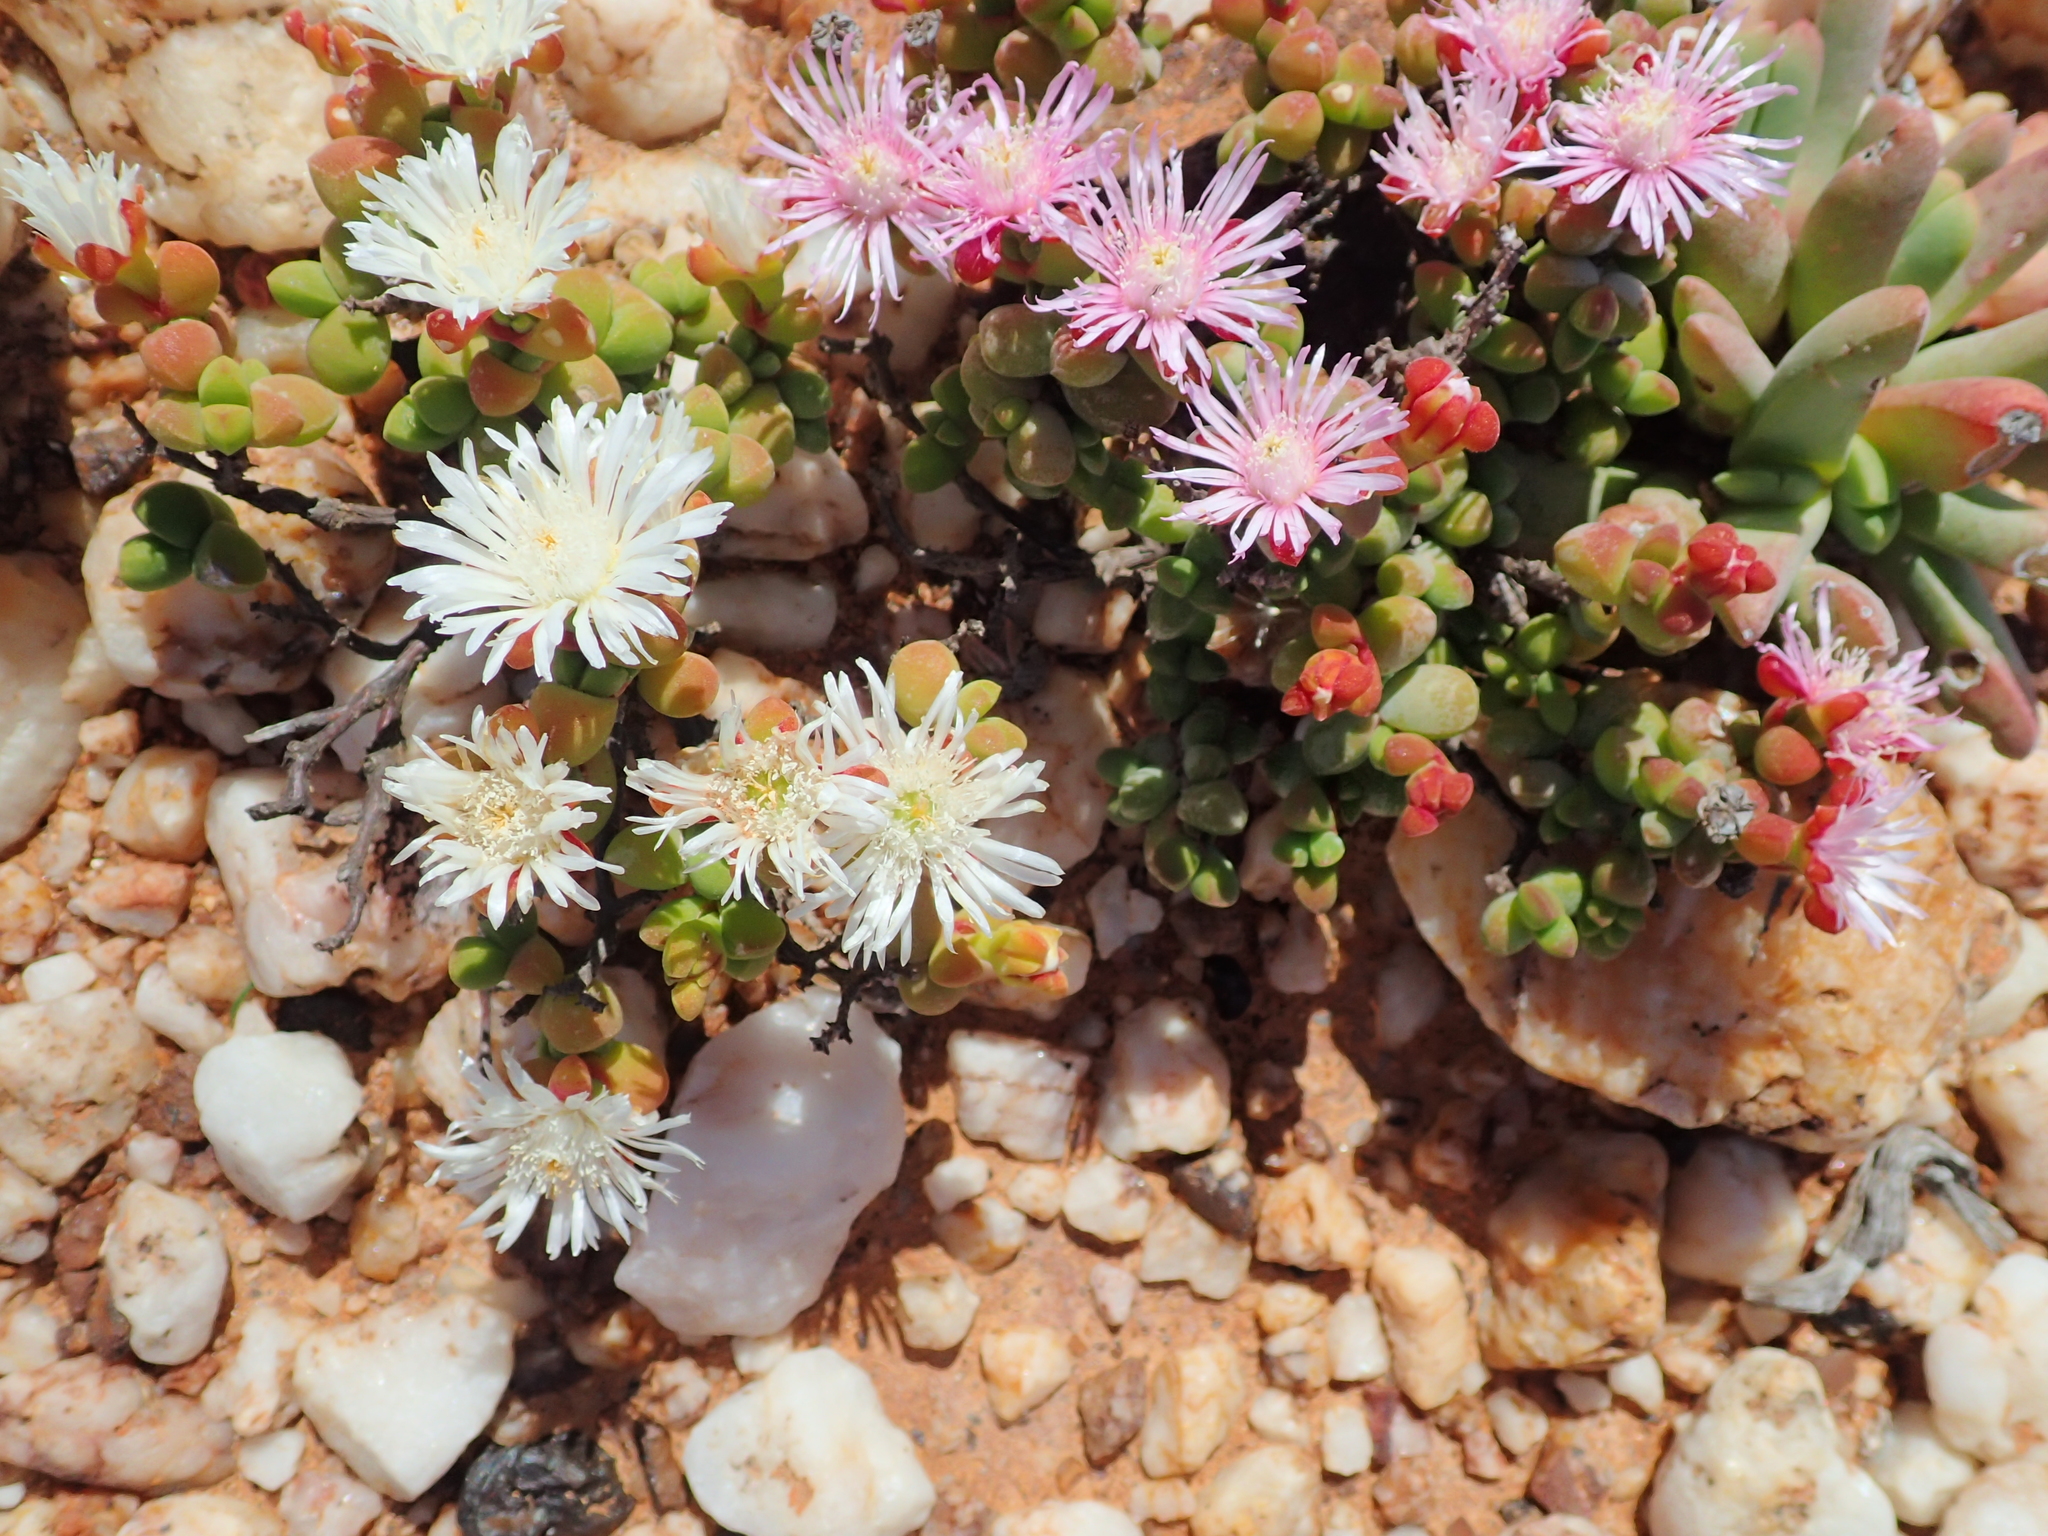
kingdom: Plantae
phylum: Tracheophyta
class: Magnoliopsida
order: Caryophyllales
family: Aizoaceae
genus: Drosanthemopsis
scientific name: Drosanthemopsis diversifolia
